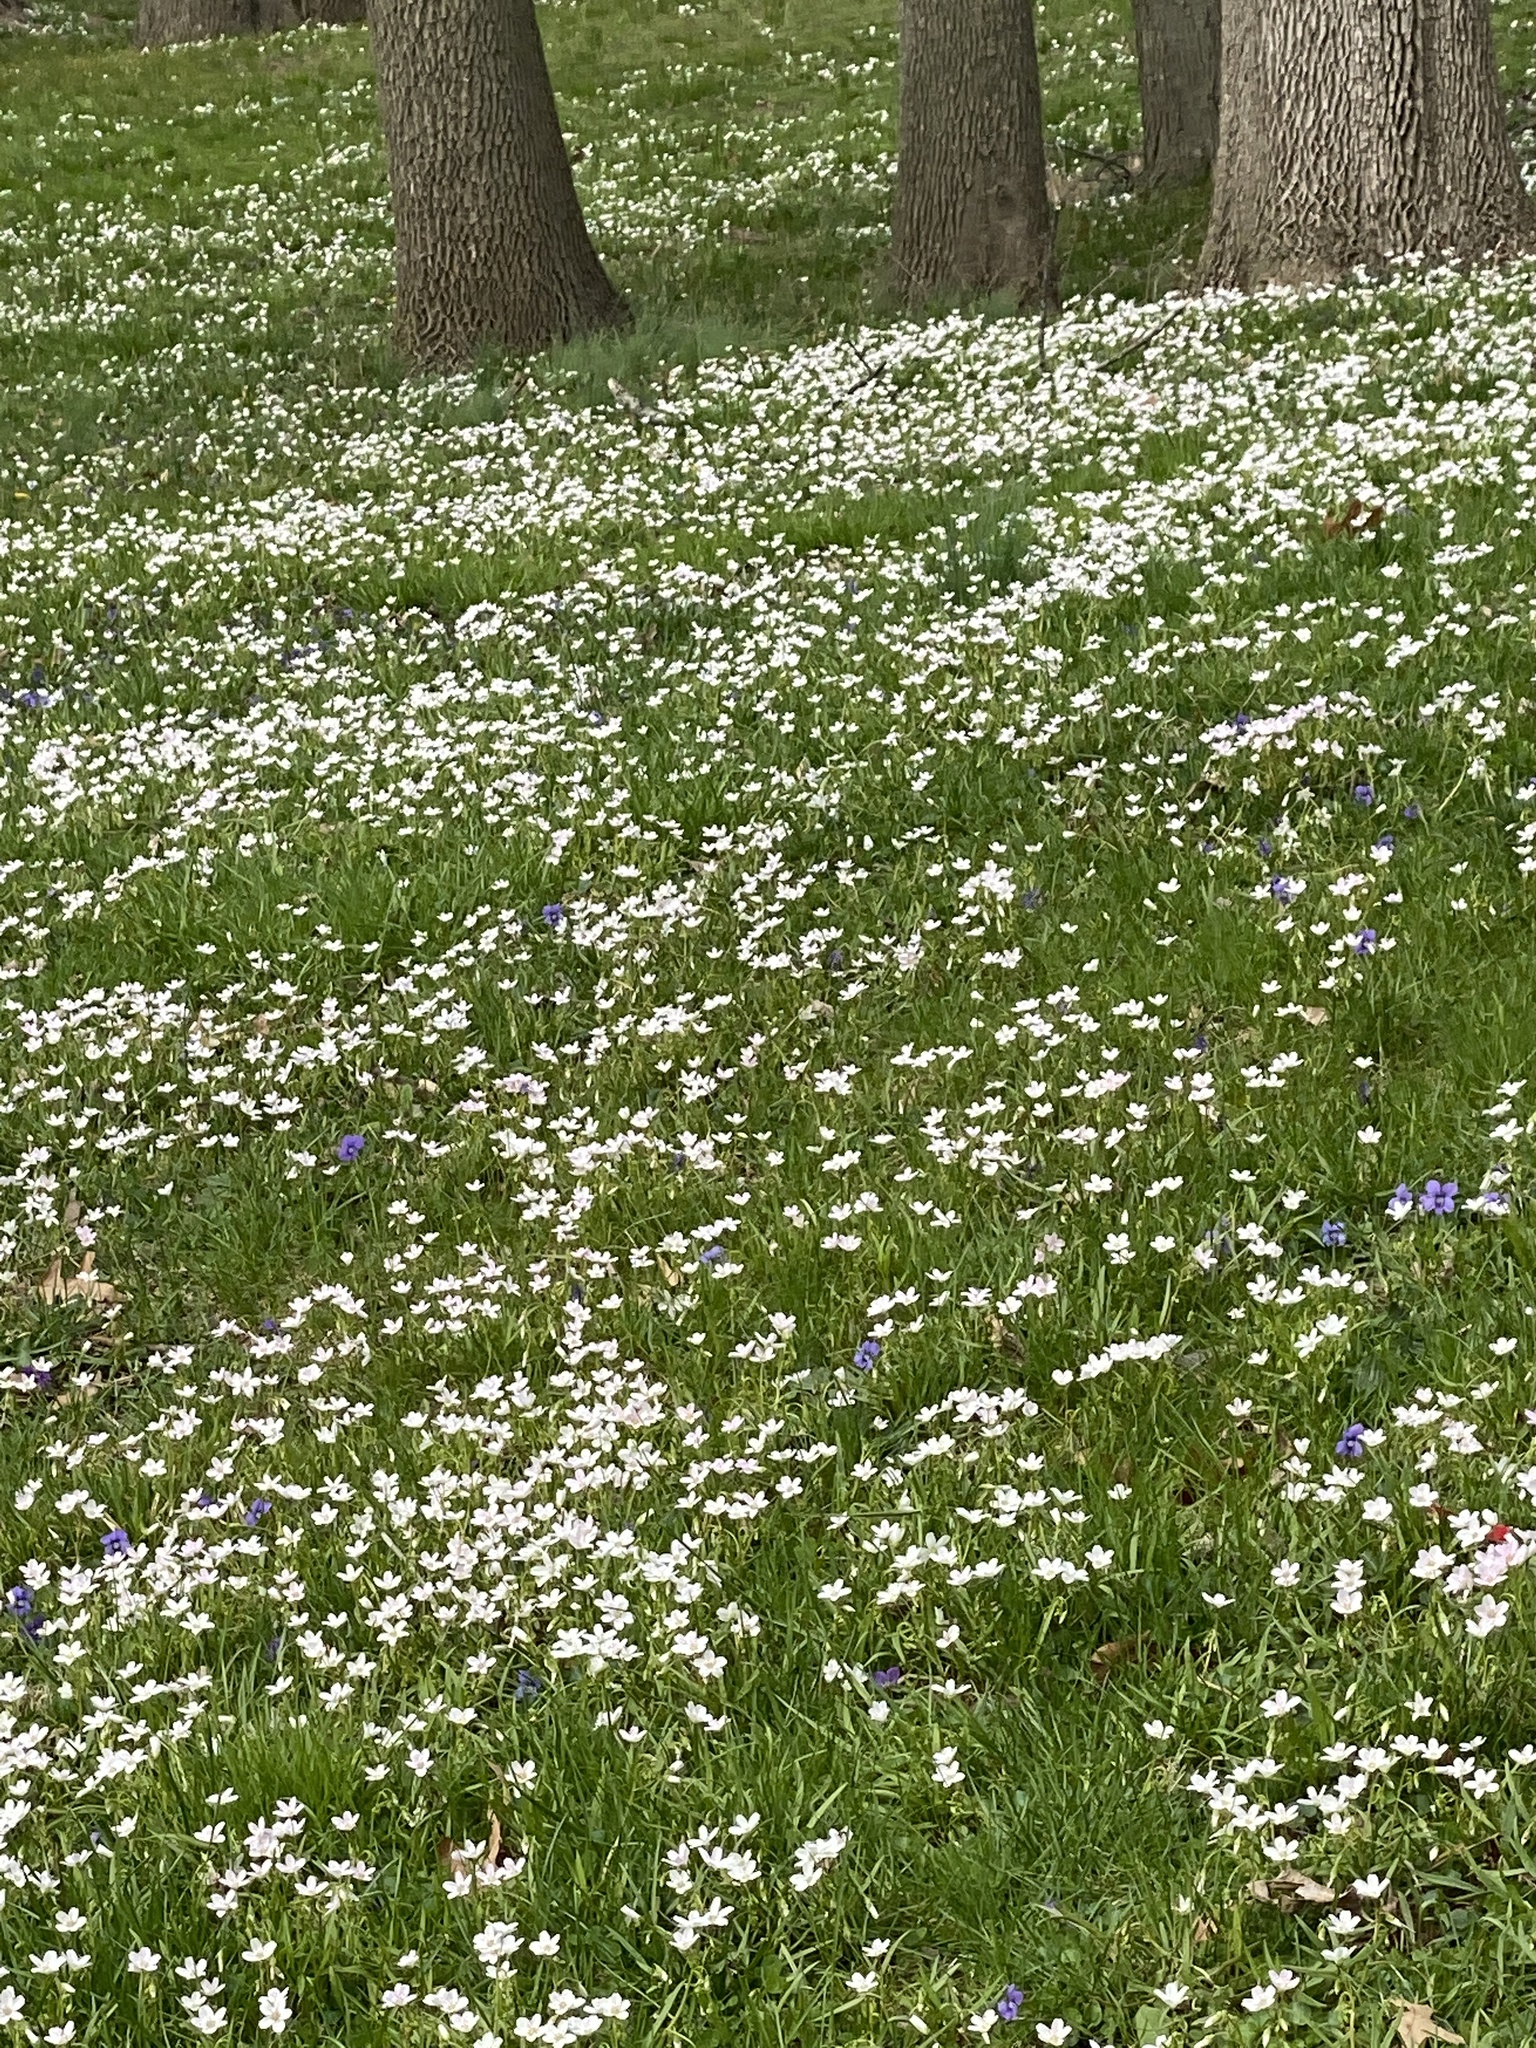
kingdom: Plantae
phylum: Tracheophyta
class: Magnoliopsida
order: Caryophyllales
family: Montiaceae
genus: Claytonia
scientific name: Claytonia virginica
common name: Virginia springbeauty
